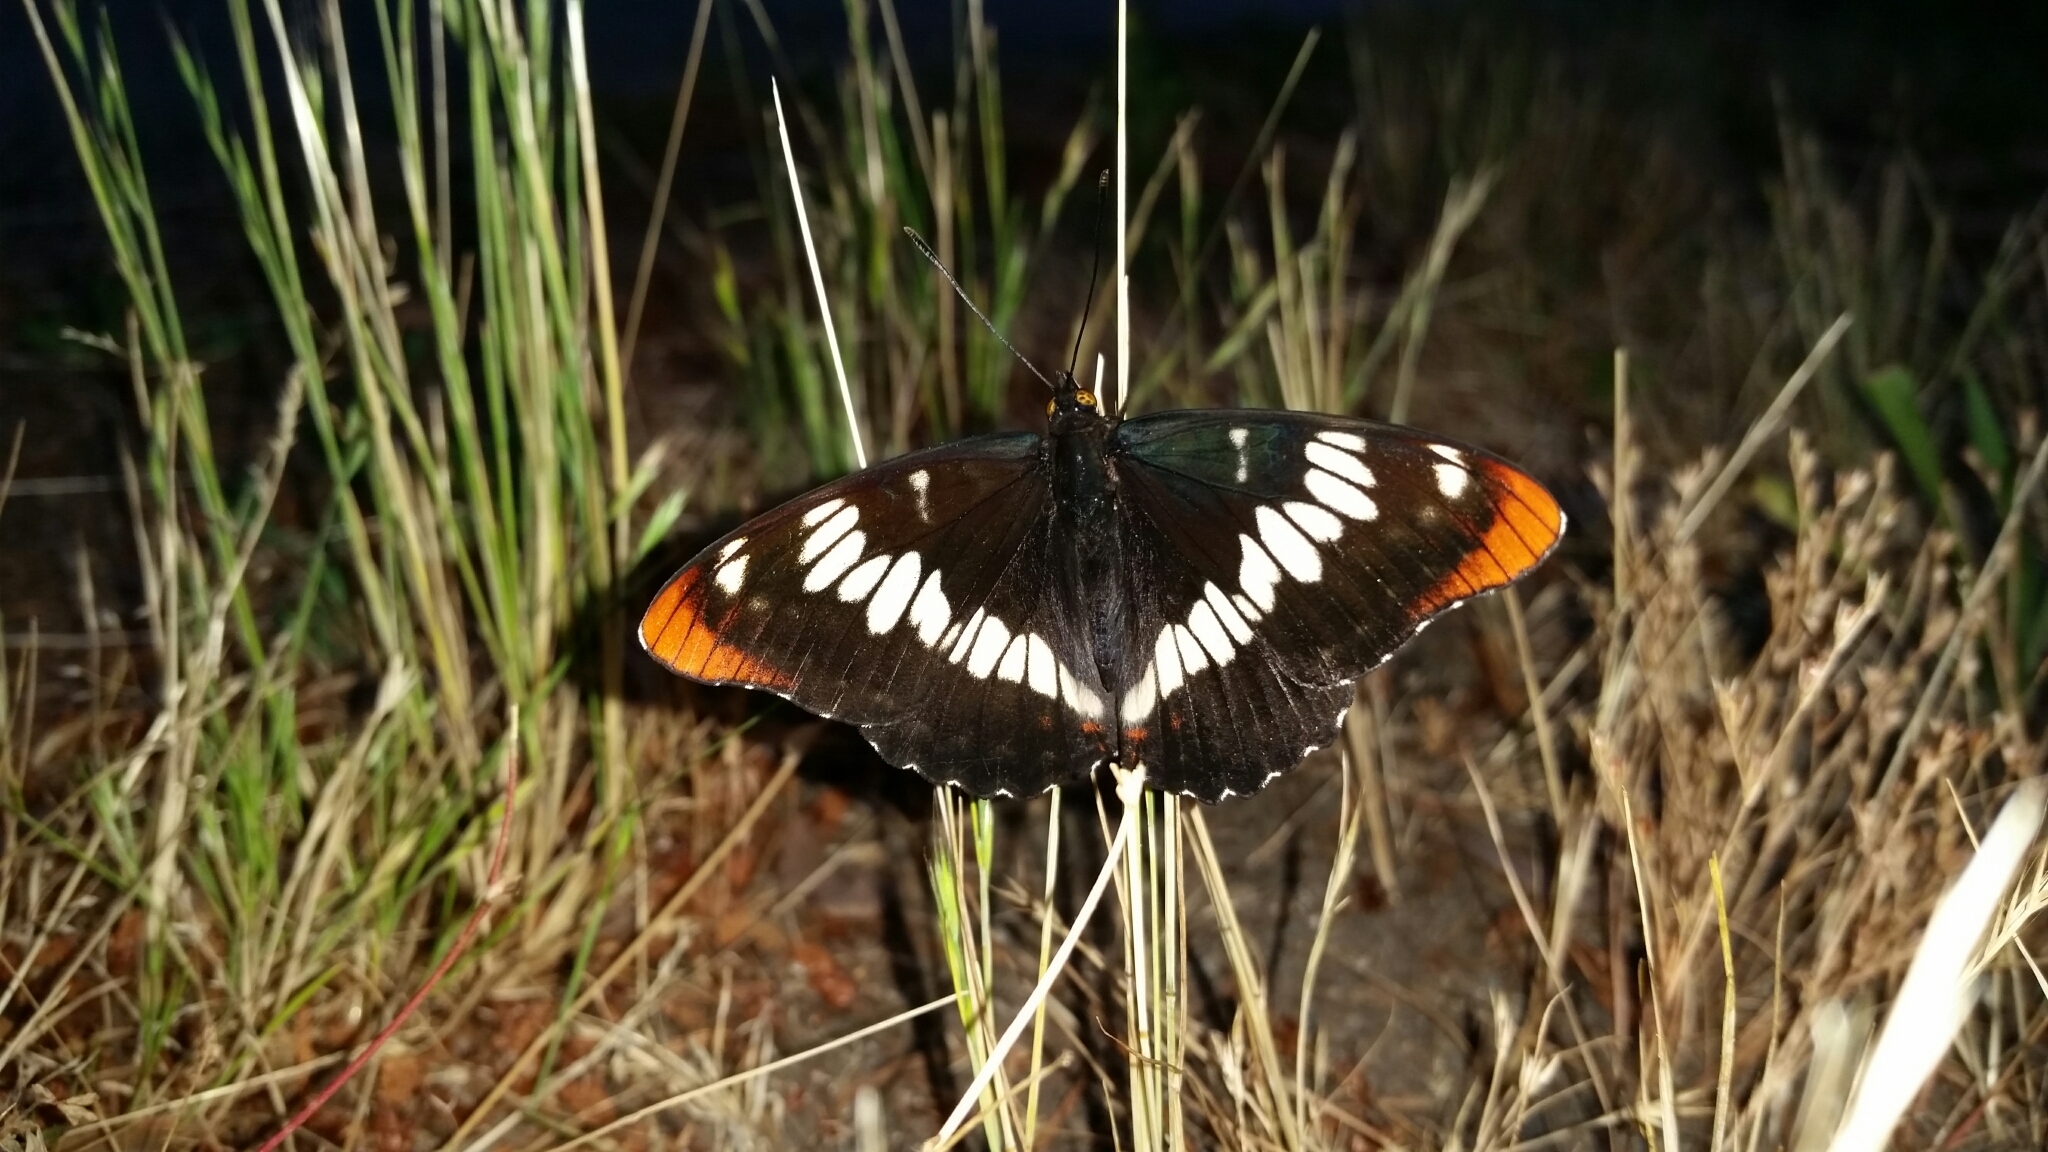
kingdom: Animalia
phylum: Arthropoda
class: Insecta
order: Lepidoptera
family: Nymphalidae
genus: Limenitis
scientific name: Limenitis lorquini
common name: Lorquin's admiral
